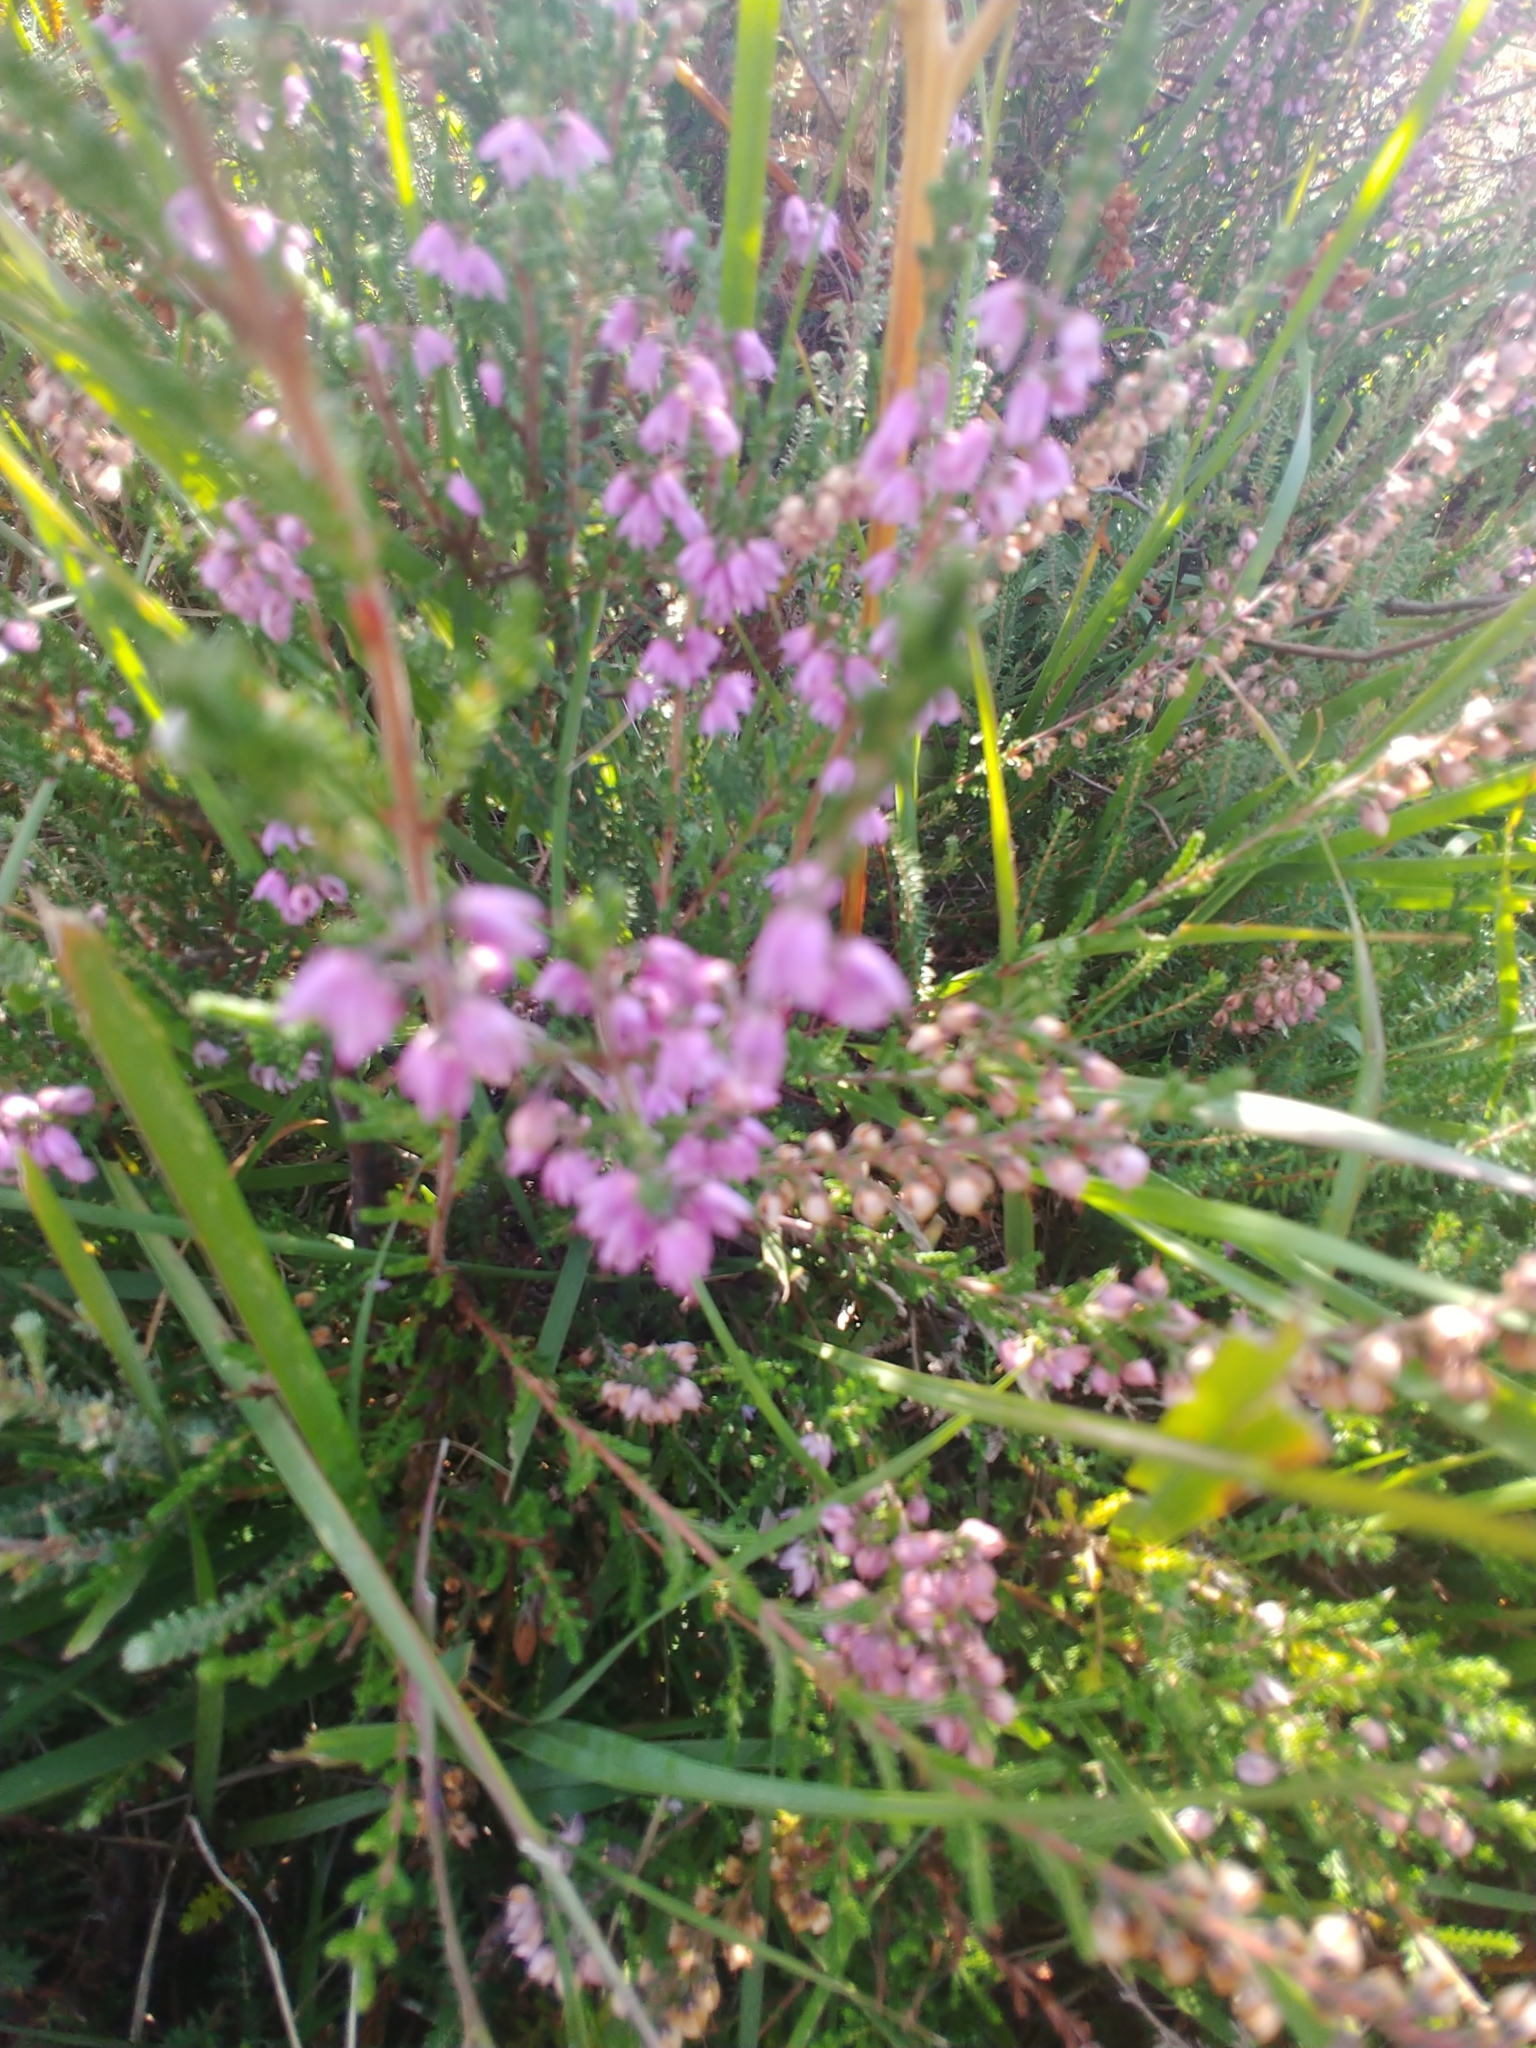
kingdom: Plantae
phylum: Tracheophyta
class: Magnoliopsida
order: Ericales
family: Ericaceae
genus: Calluna
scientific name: Calluna vulgaris
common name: Heather
